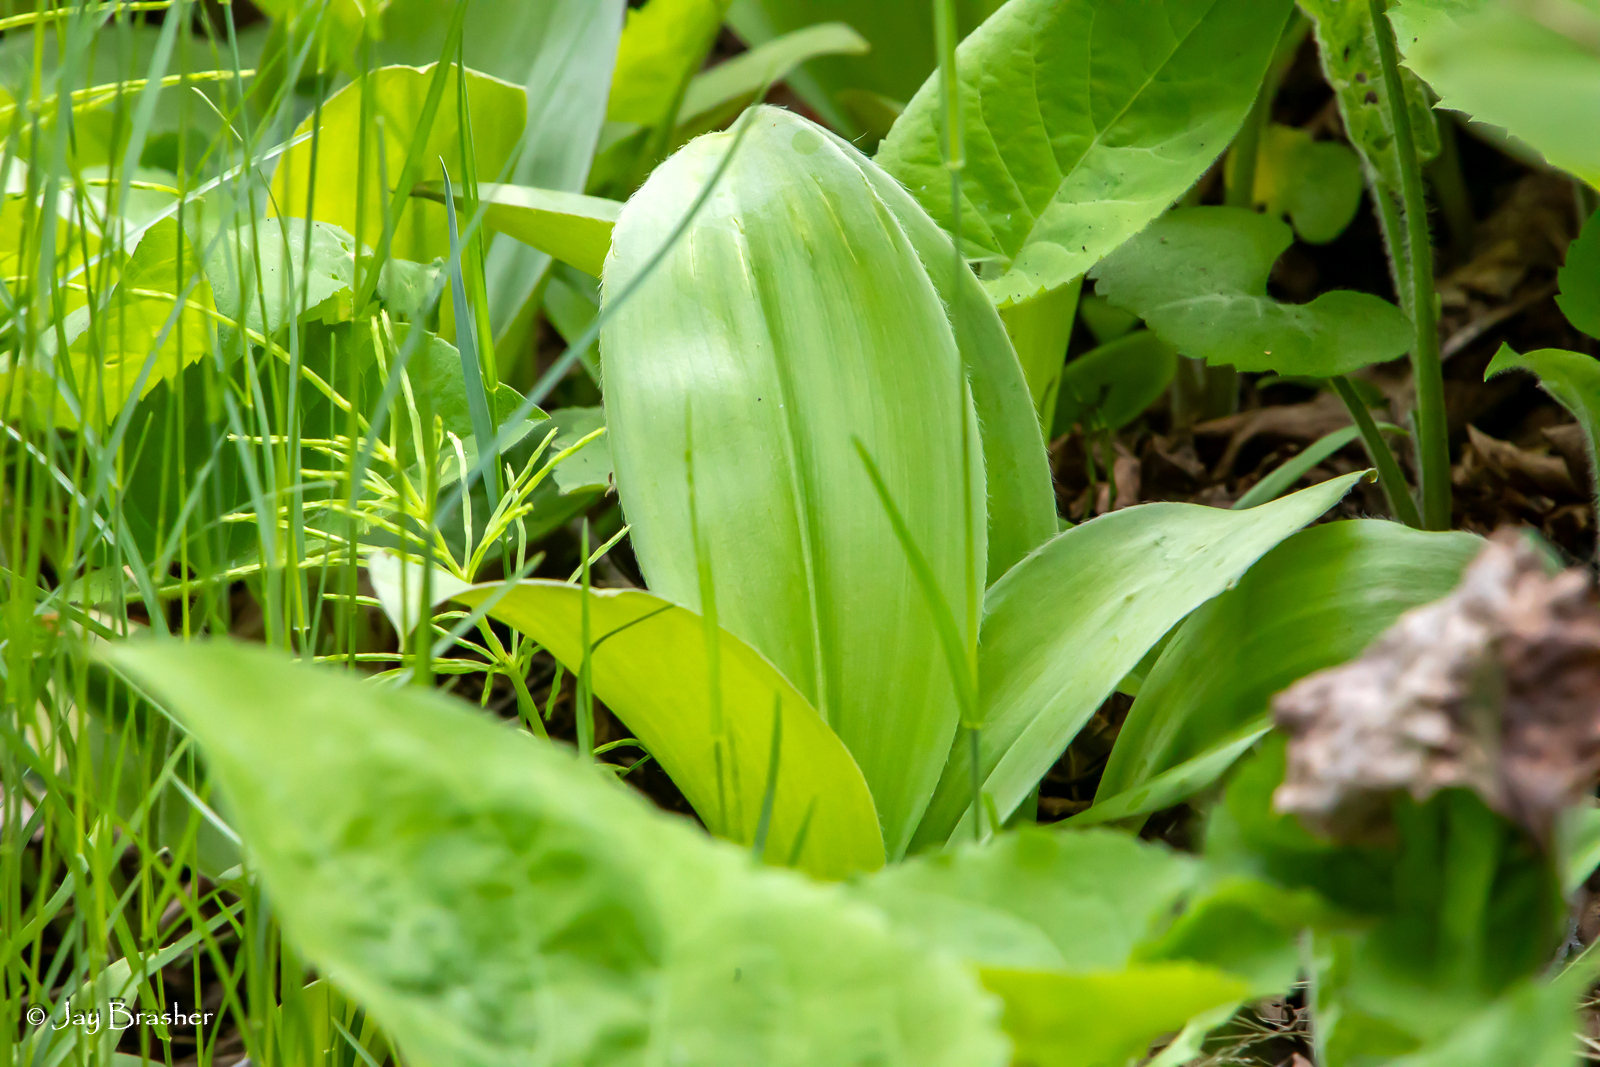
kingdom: Plantae
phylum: Tracheophyta
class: Liliopsida
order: Liliales
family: Liliaceae
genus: Clintonia
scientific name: Clintonia borealis
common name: Yellow clintonia
